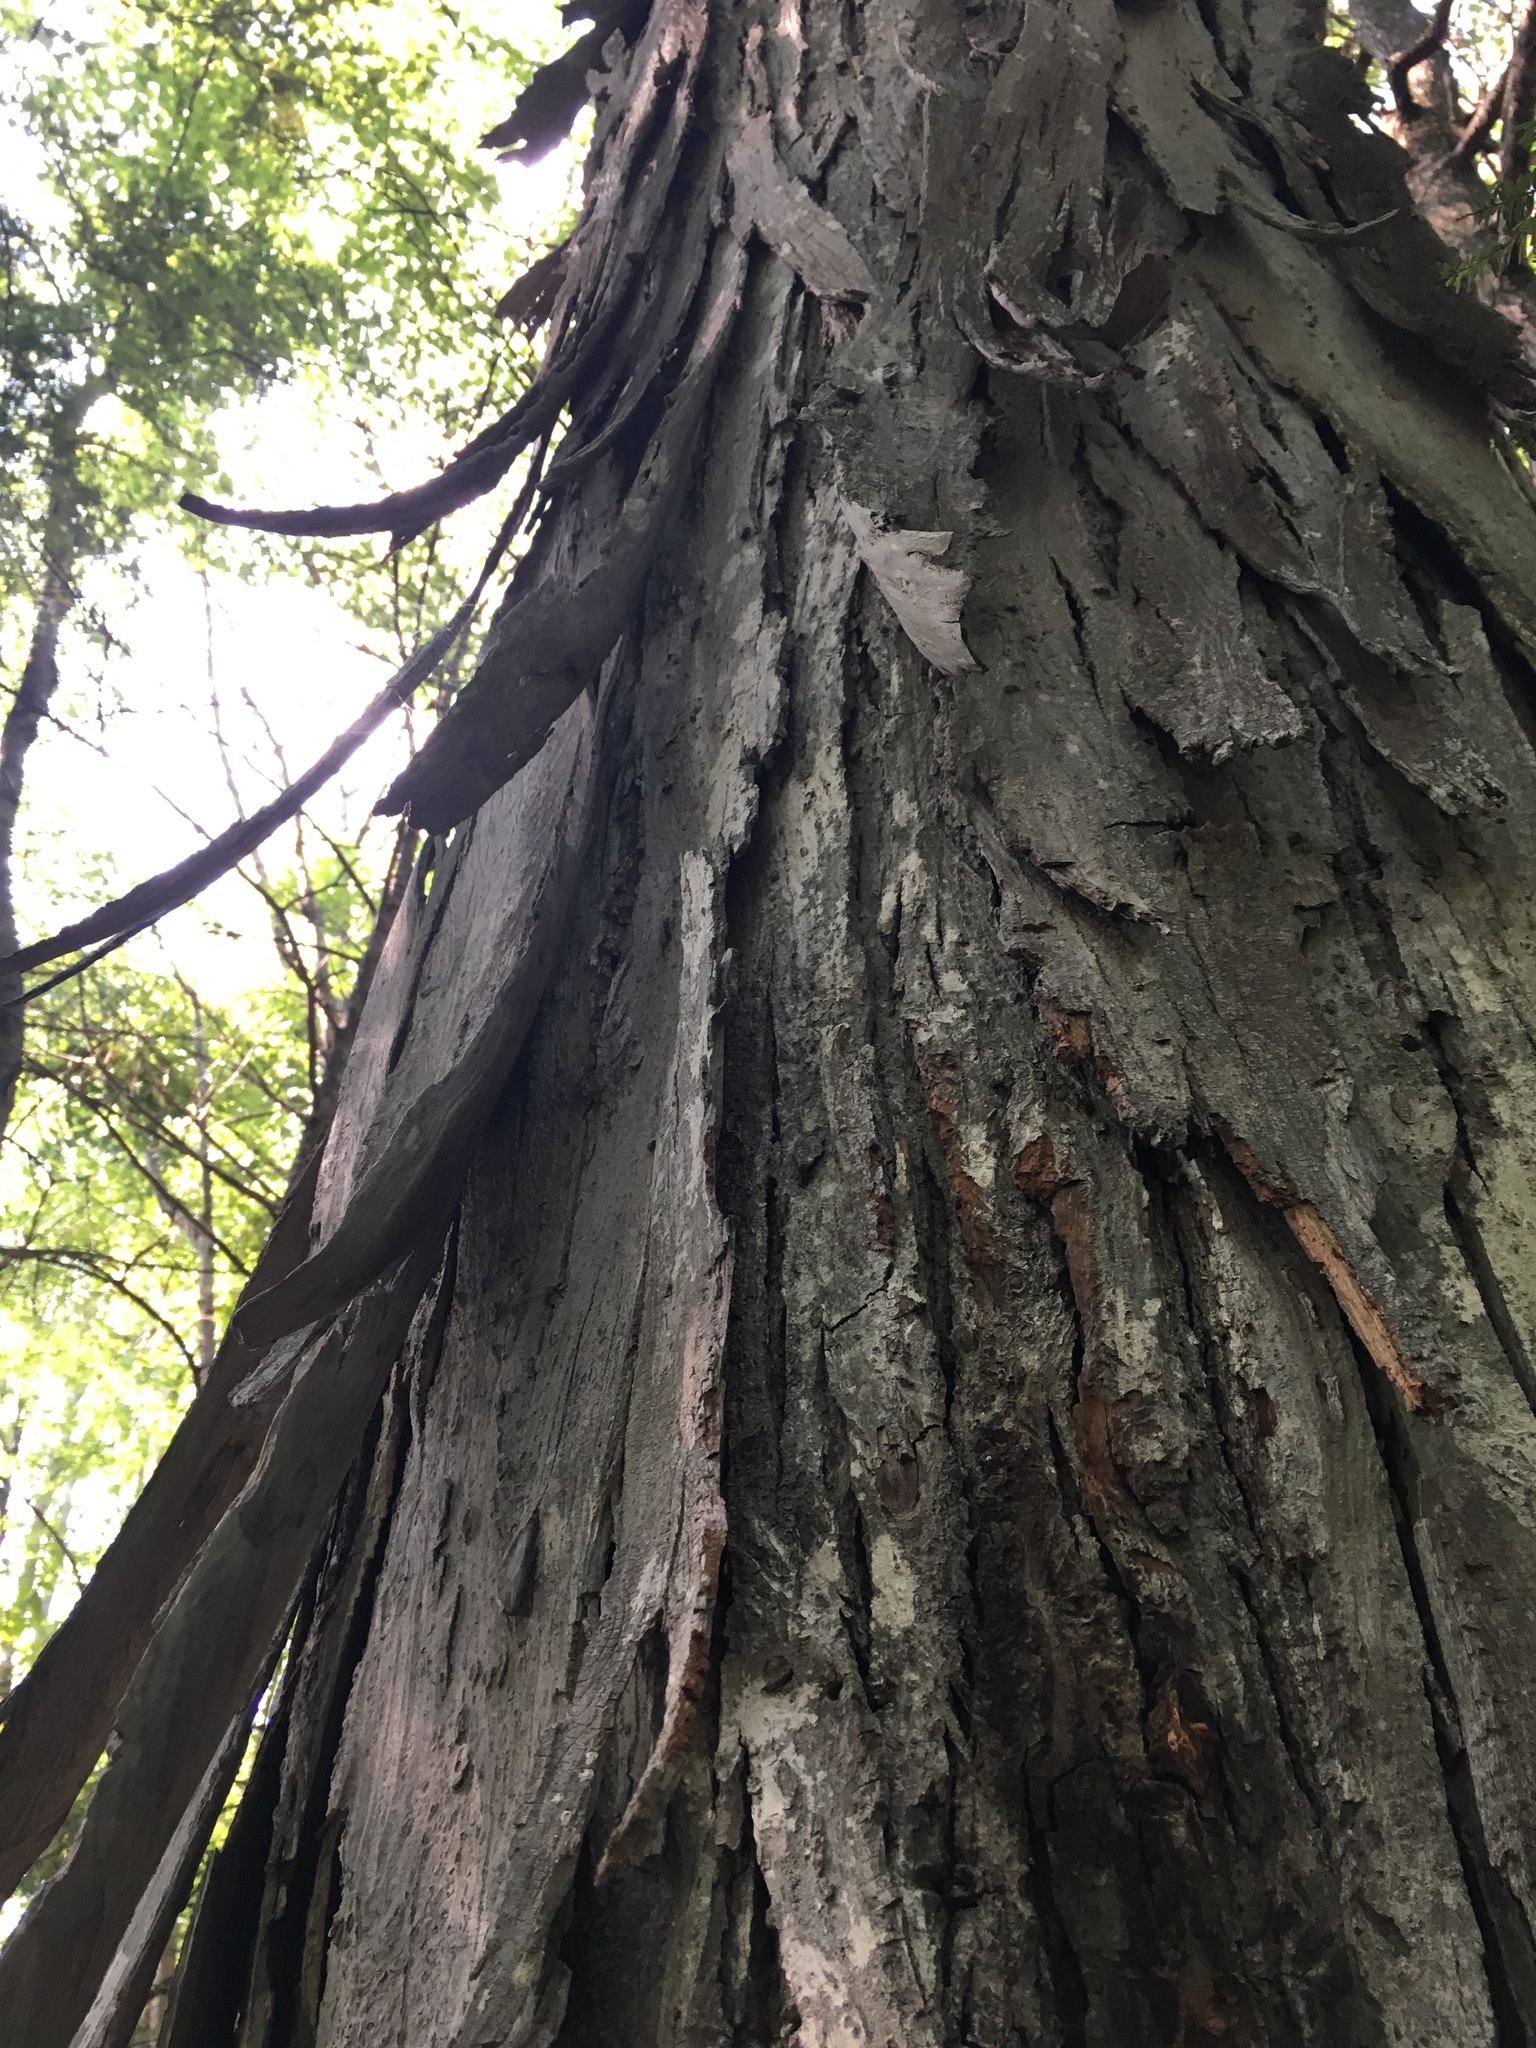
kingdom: Plantae
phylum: Tracheophyta
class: Magnoliopsida
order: Fagales
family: Juglandaceae
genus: Carya
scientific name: Carya ovata
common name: Shagbark hickory
